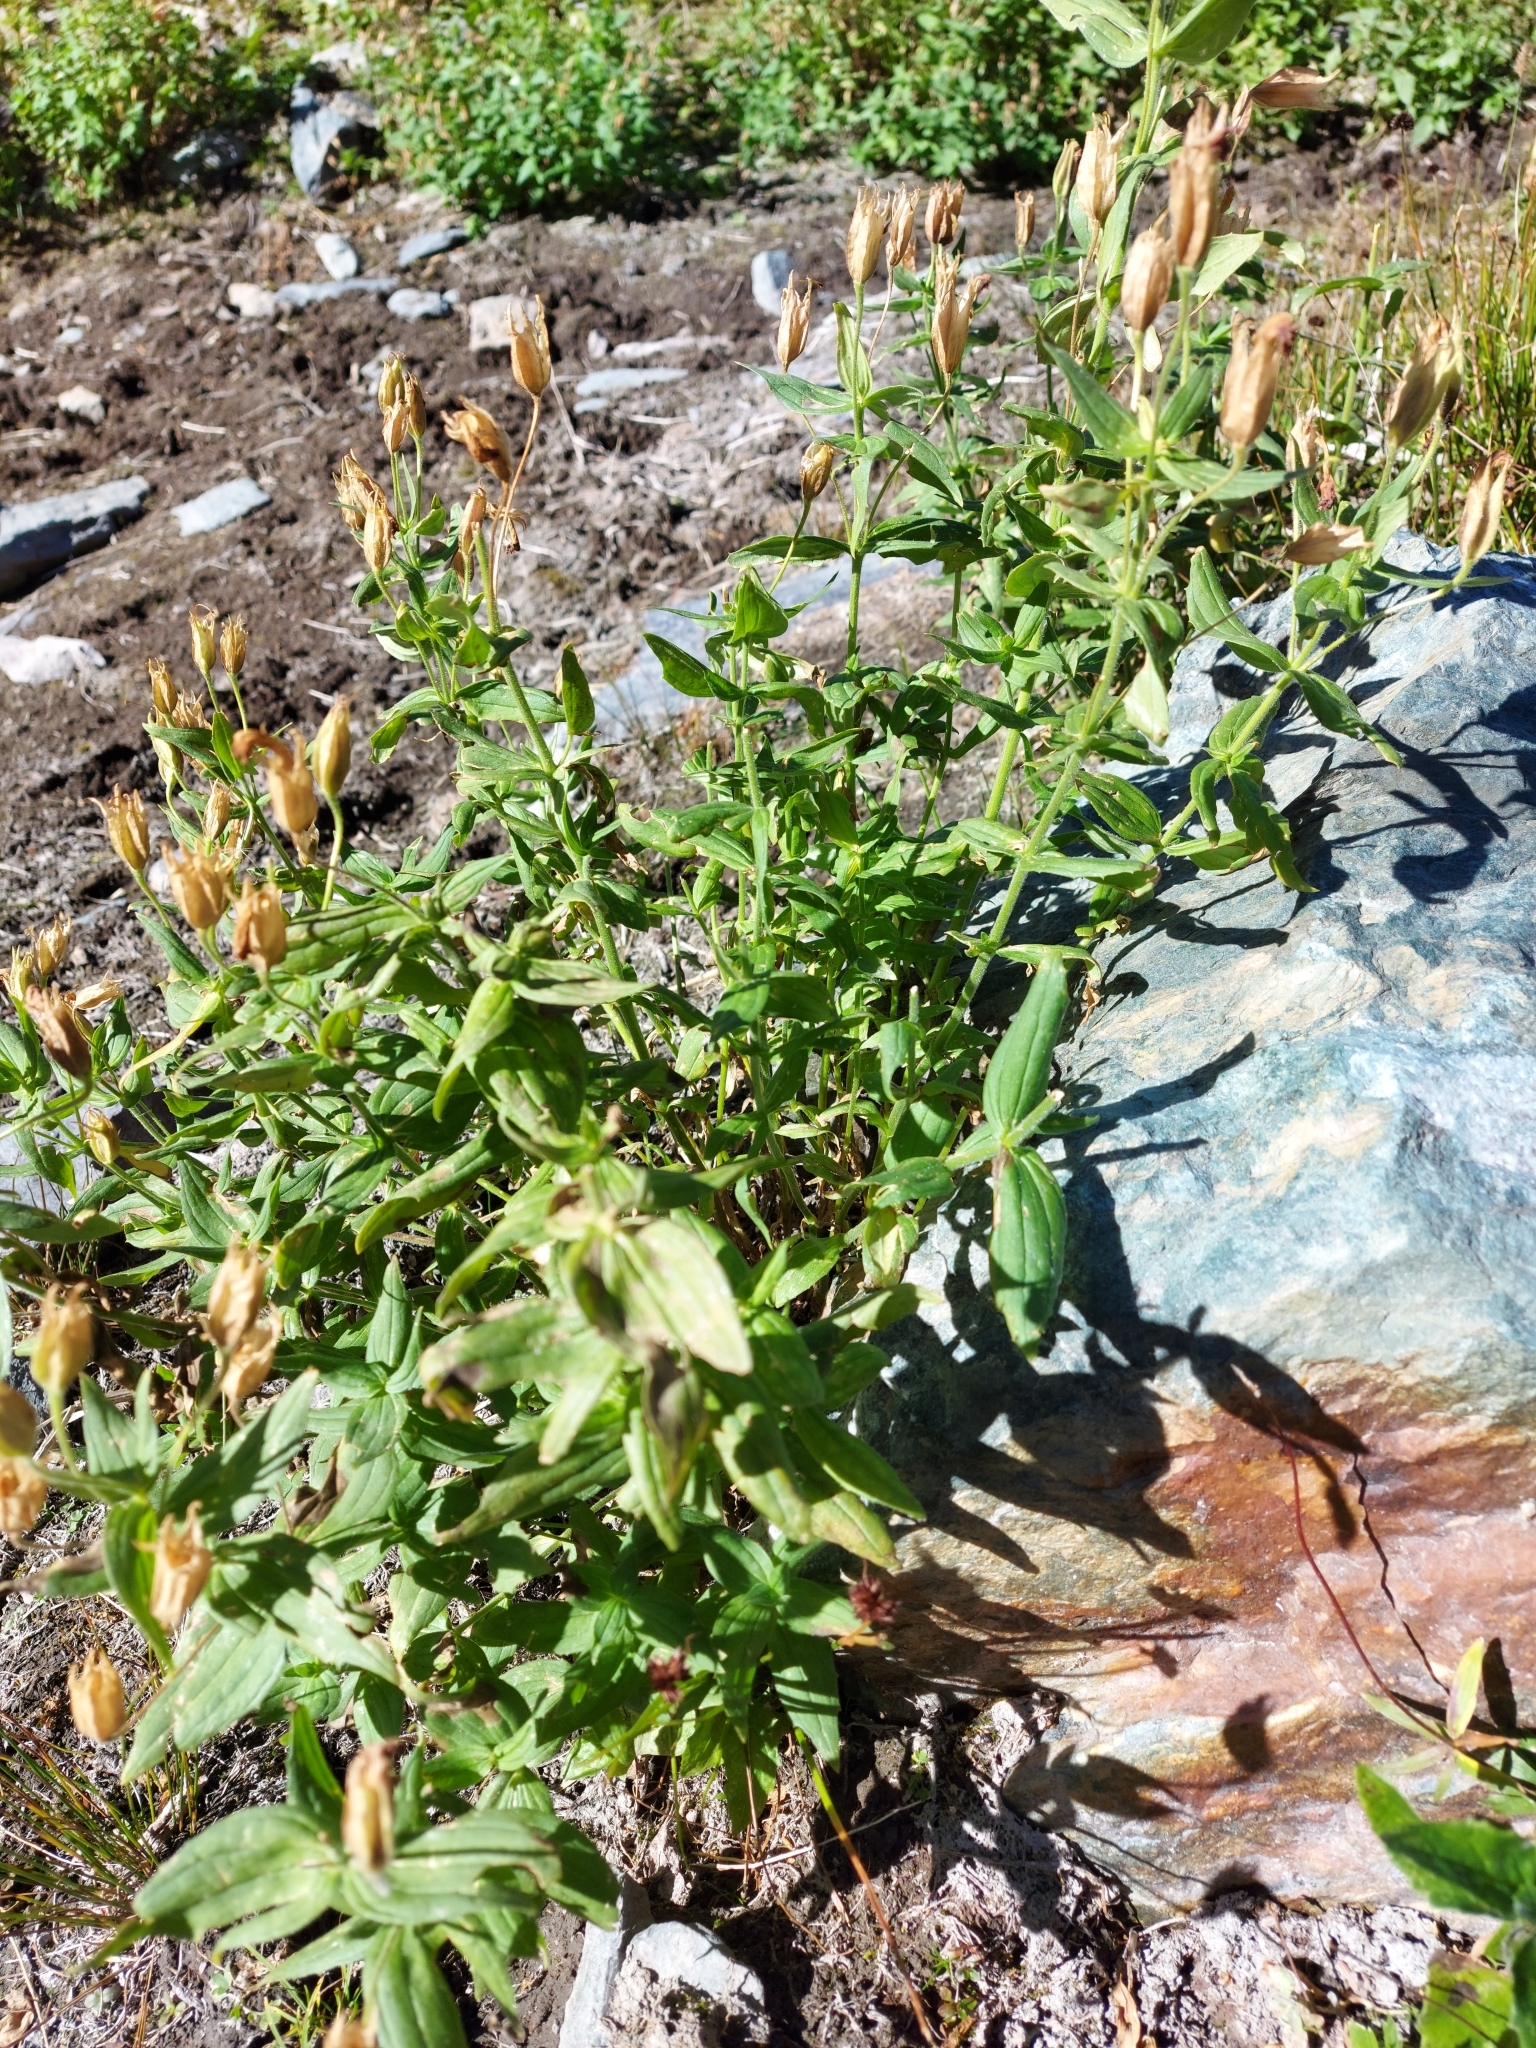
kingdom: Plantae
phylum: Tracheophyta
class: Magnoliopsida
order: Lamiales
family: Phrymaceae
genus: Erythranthe
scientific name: Erythranthe lewisii
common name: Lewis's monkey-flower
